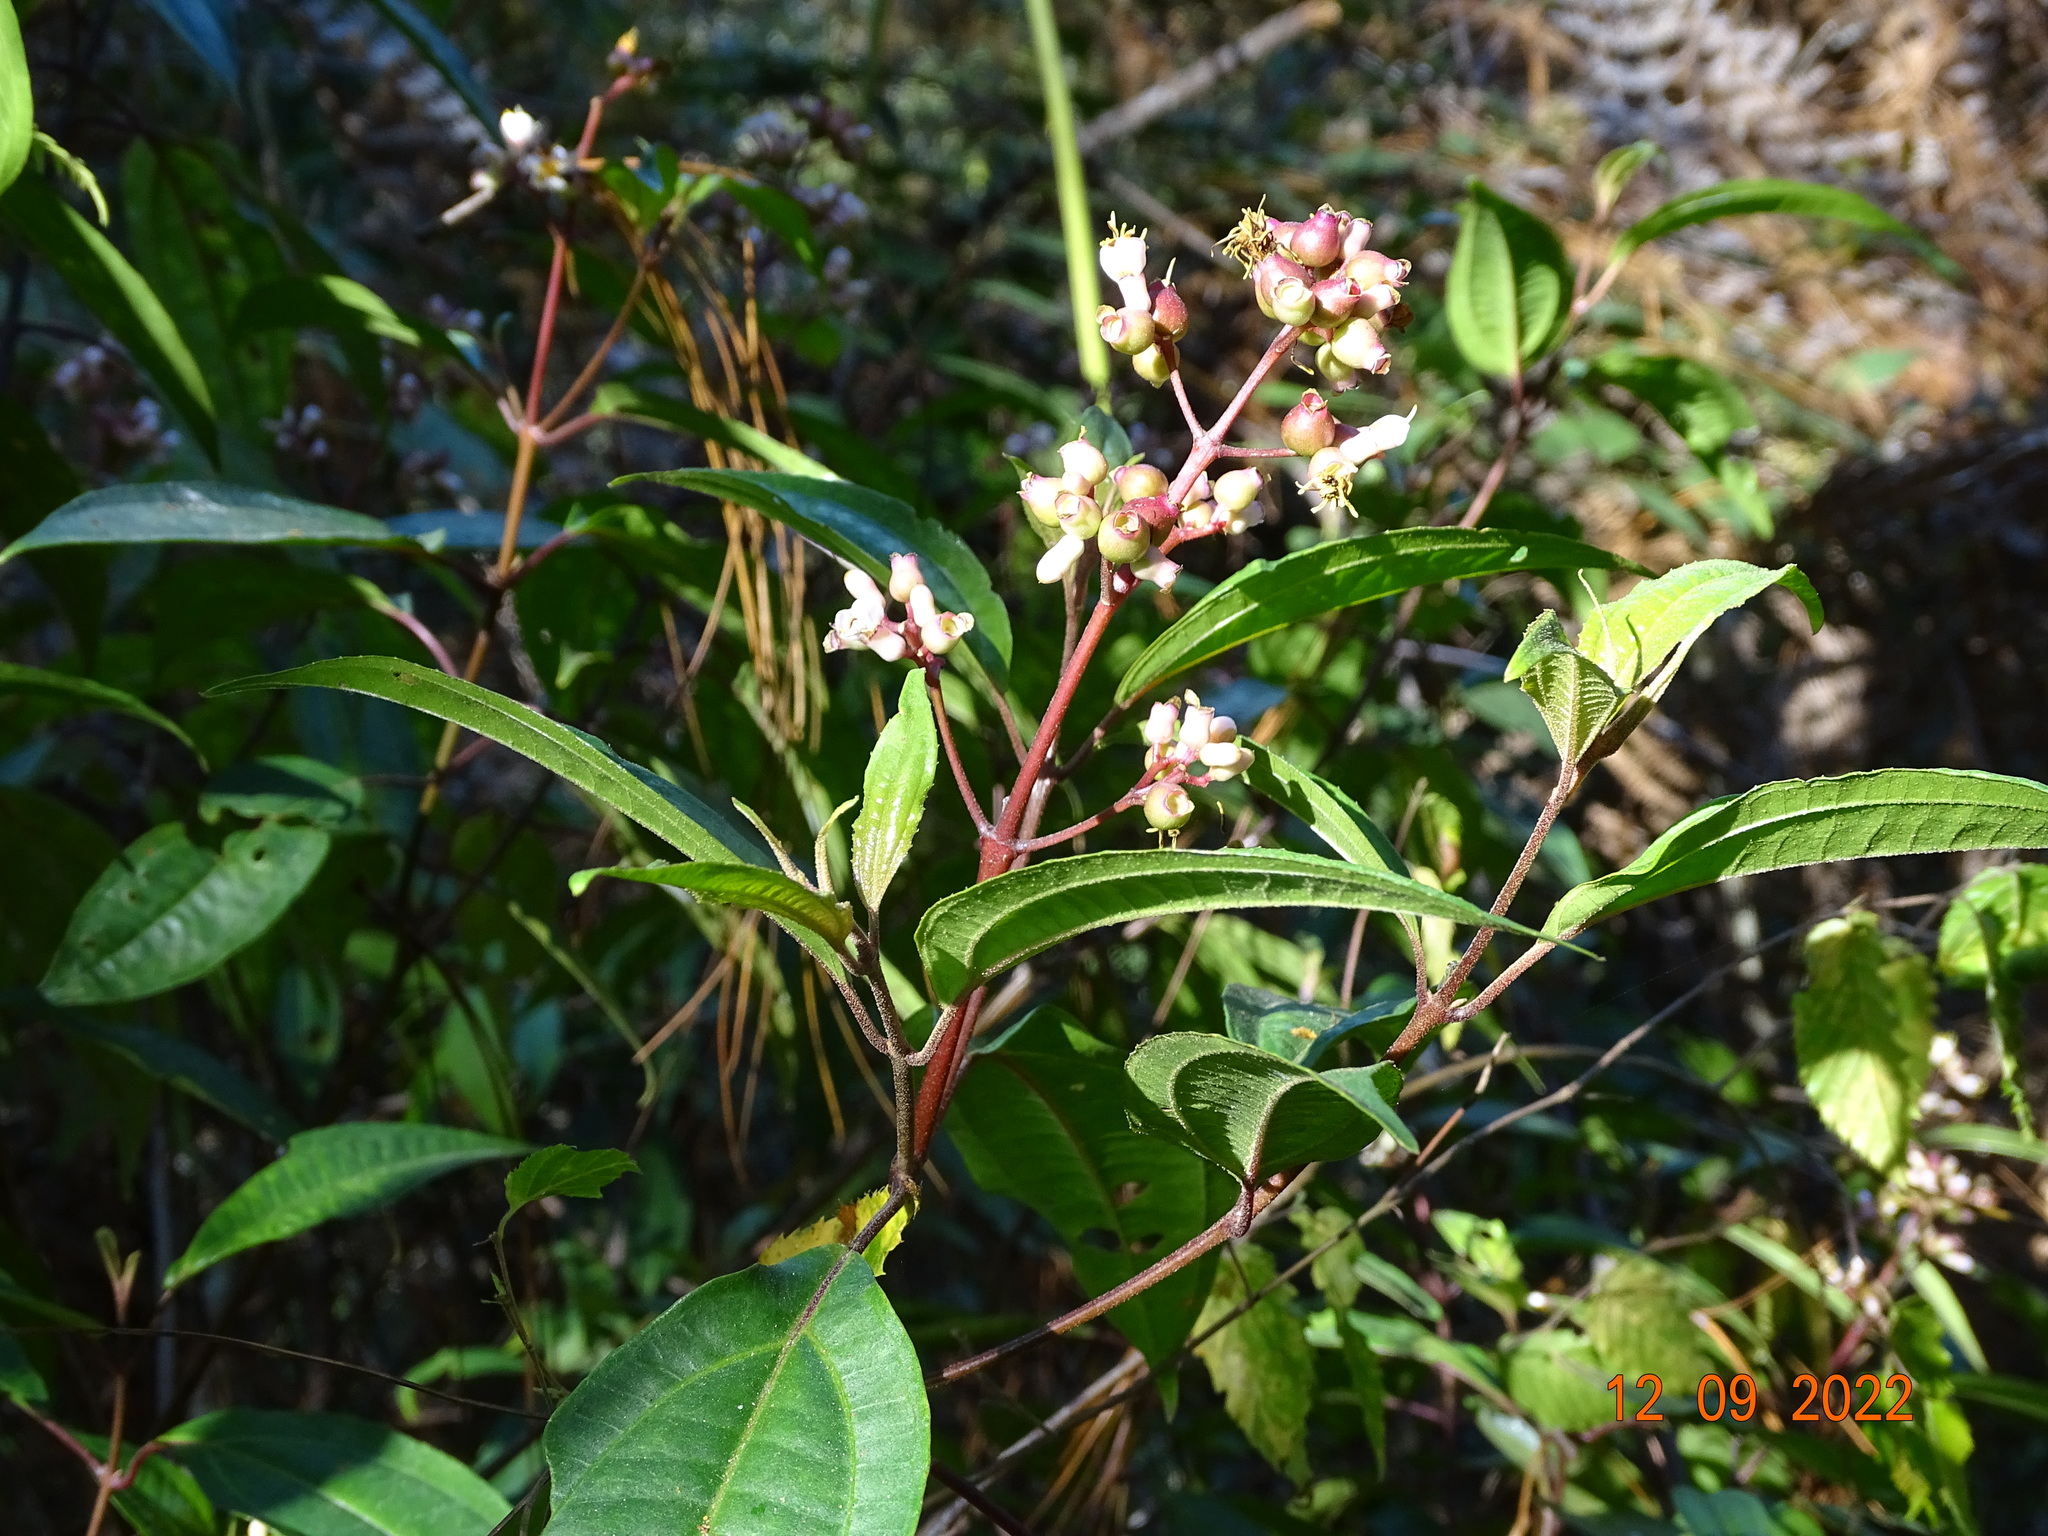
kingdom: Plantae
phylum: Tracheophyta
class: Magnoliopsida
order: Myrtales
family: Melastomataceae
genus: Miconia
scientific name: Miconia mexicana
